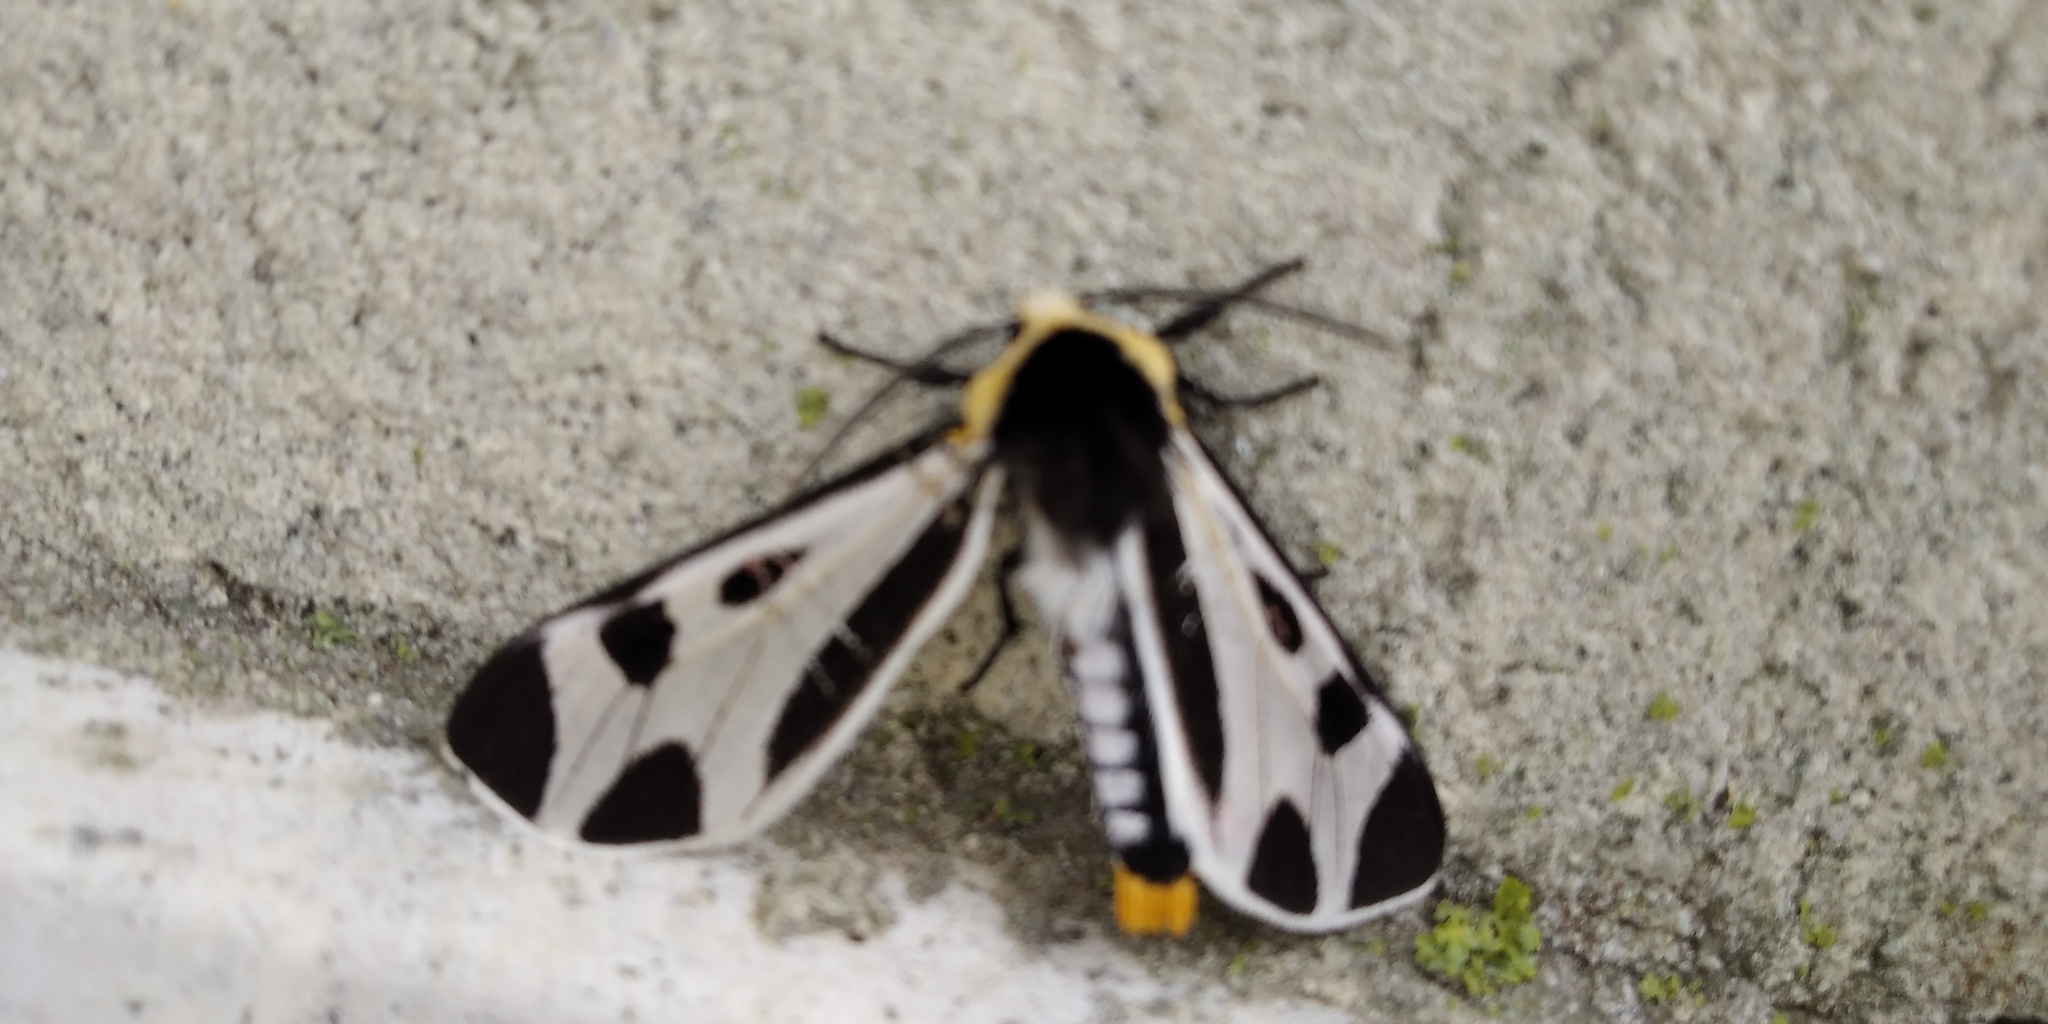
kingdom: Animalia
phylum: Arthropoda
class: Insecta
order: Lepidoptera
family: Erebidae
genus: Dysschema
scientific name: Dysschema centenaria
